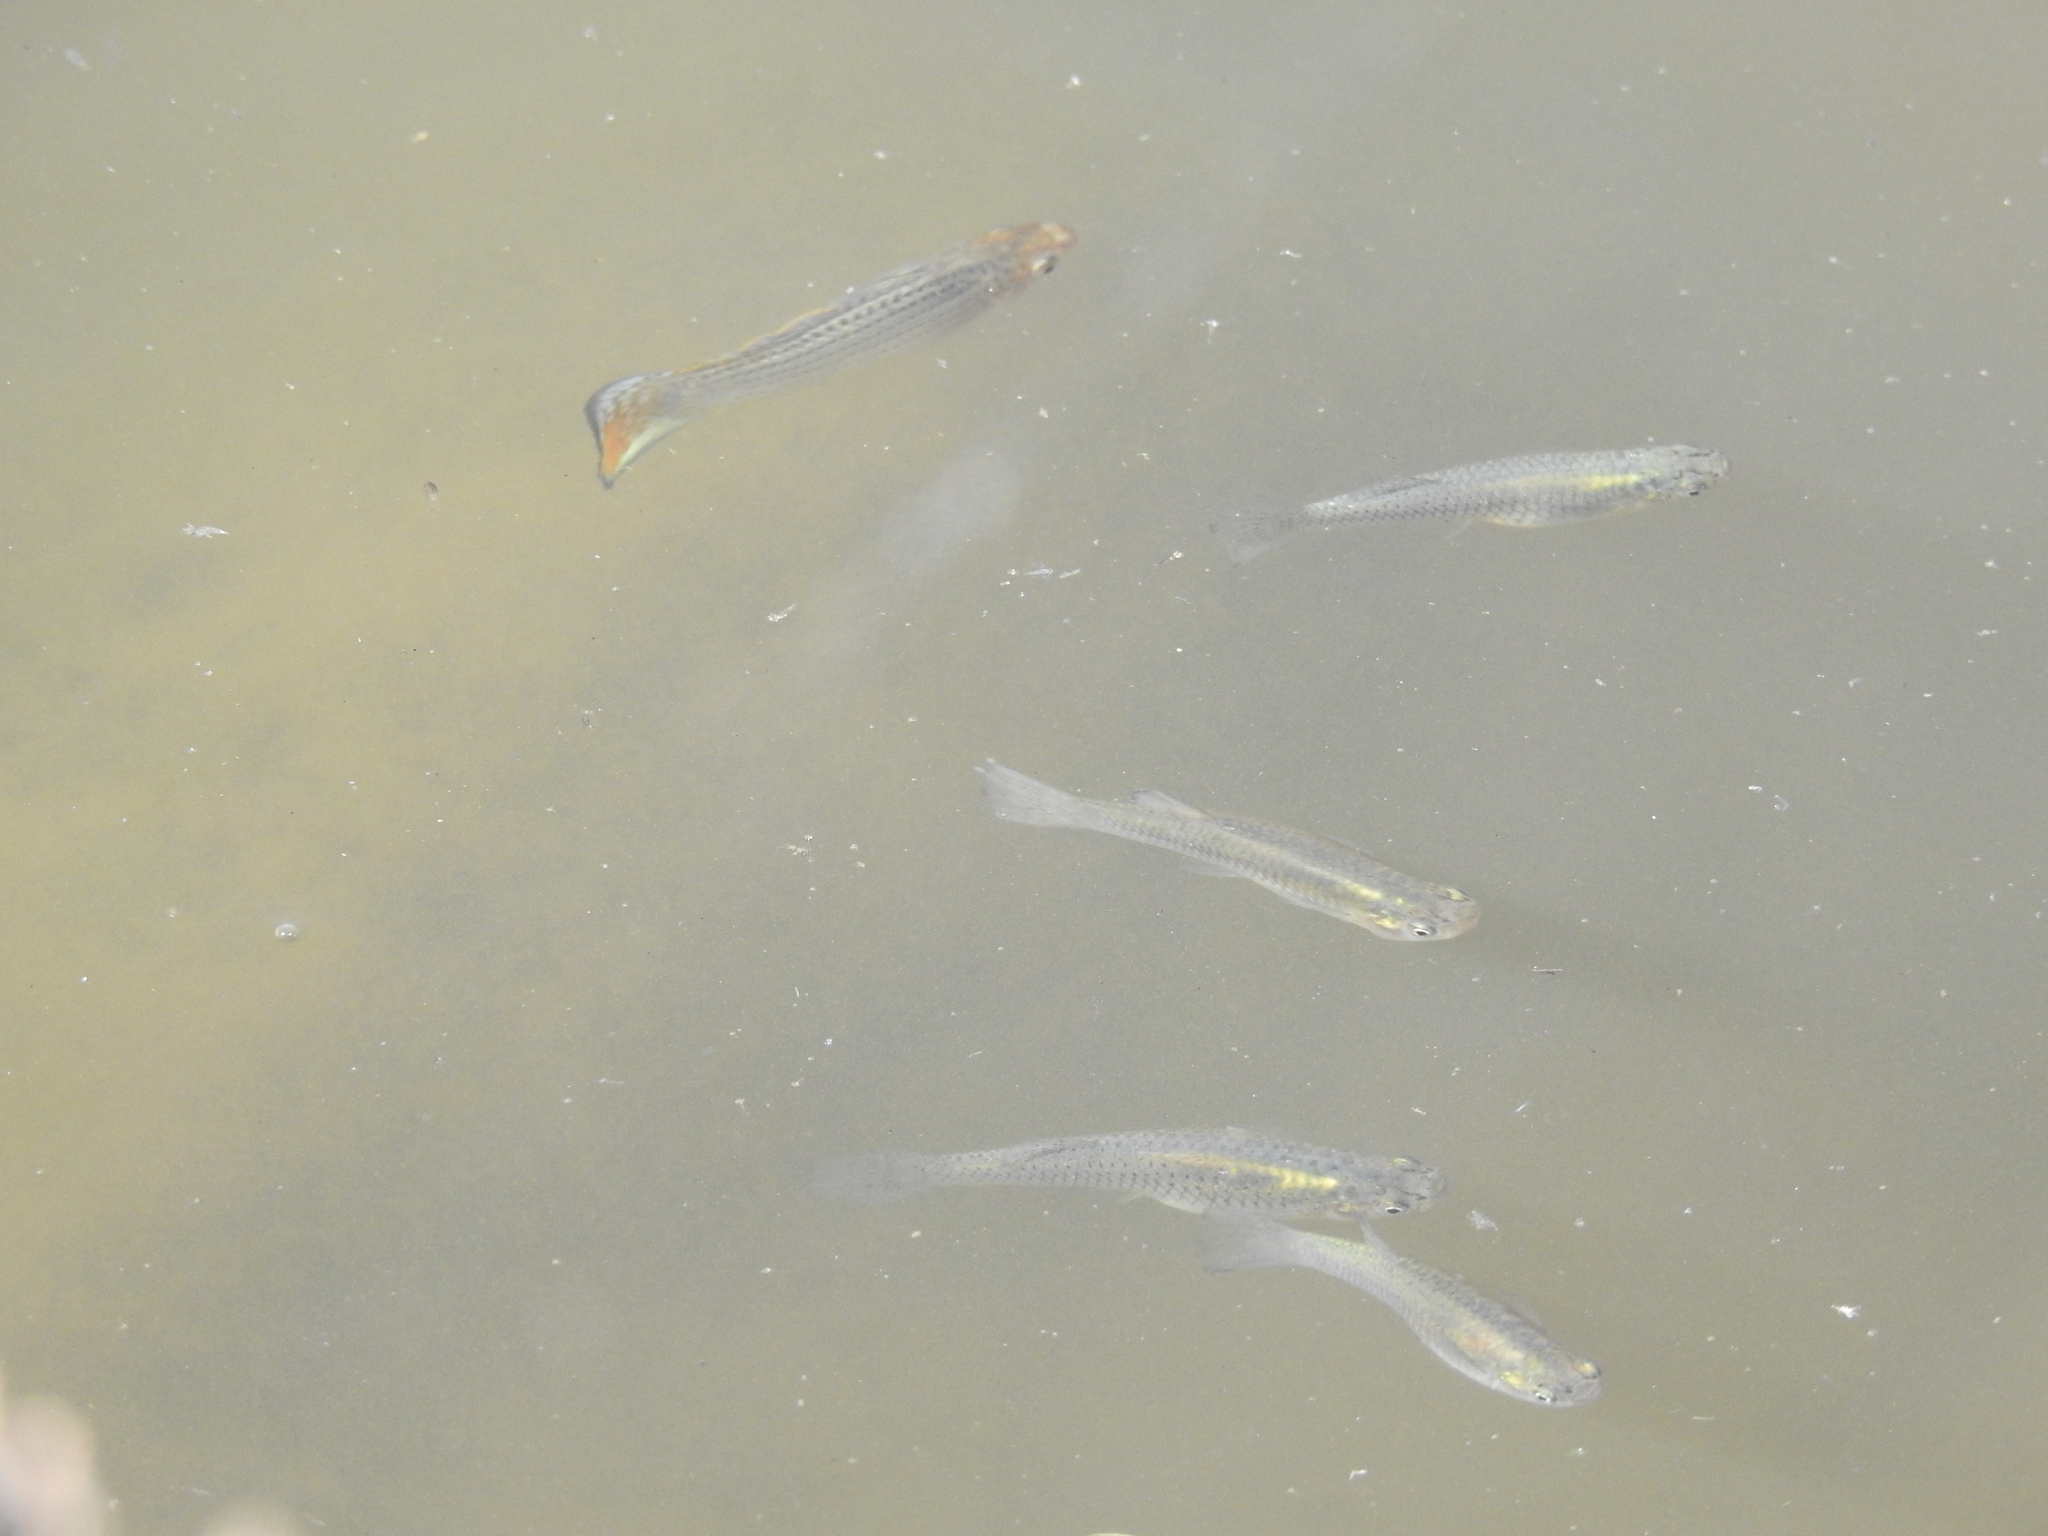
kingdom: Animalia
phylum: Chordata
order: Cyprinodontiformes
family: Poeciliidae
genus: Gambusia
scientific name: Gambusia affinis
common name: Mosquitofish
